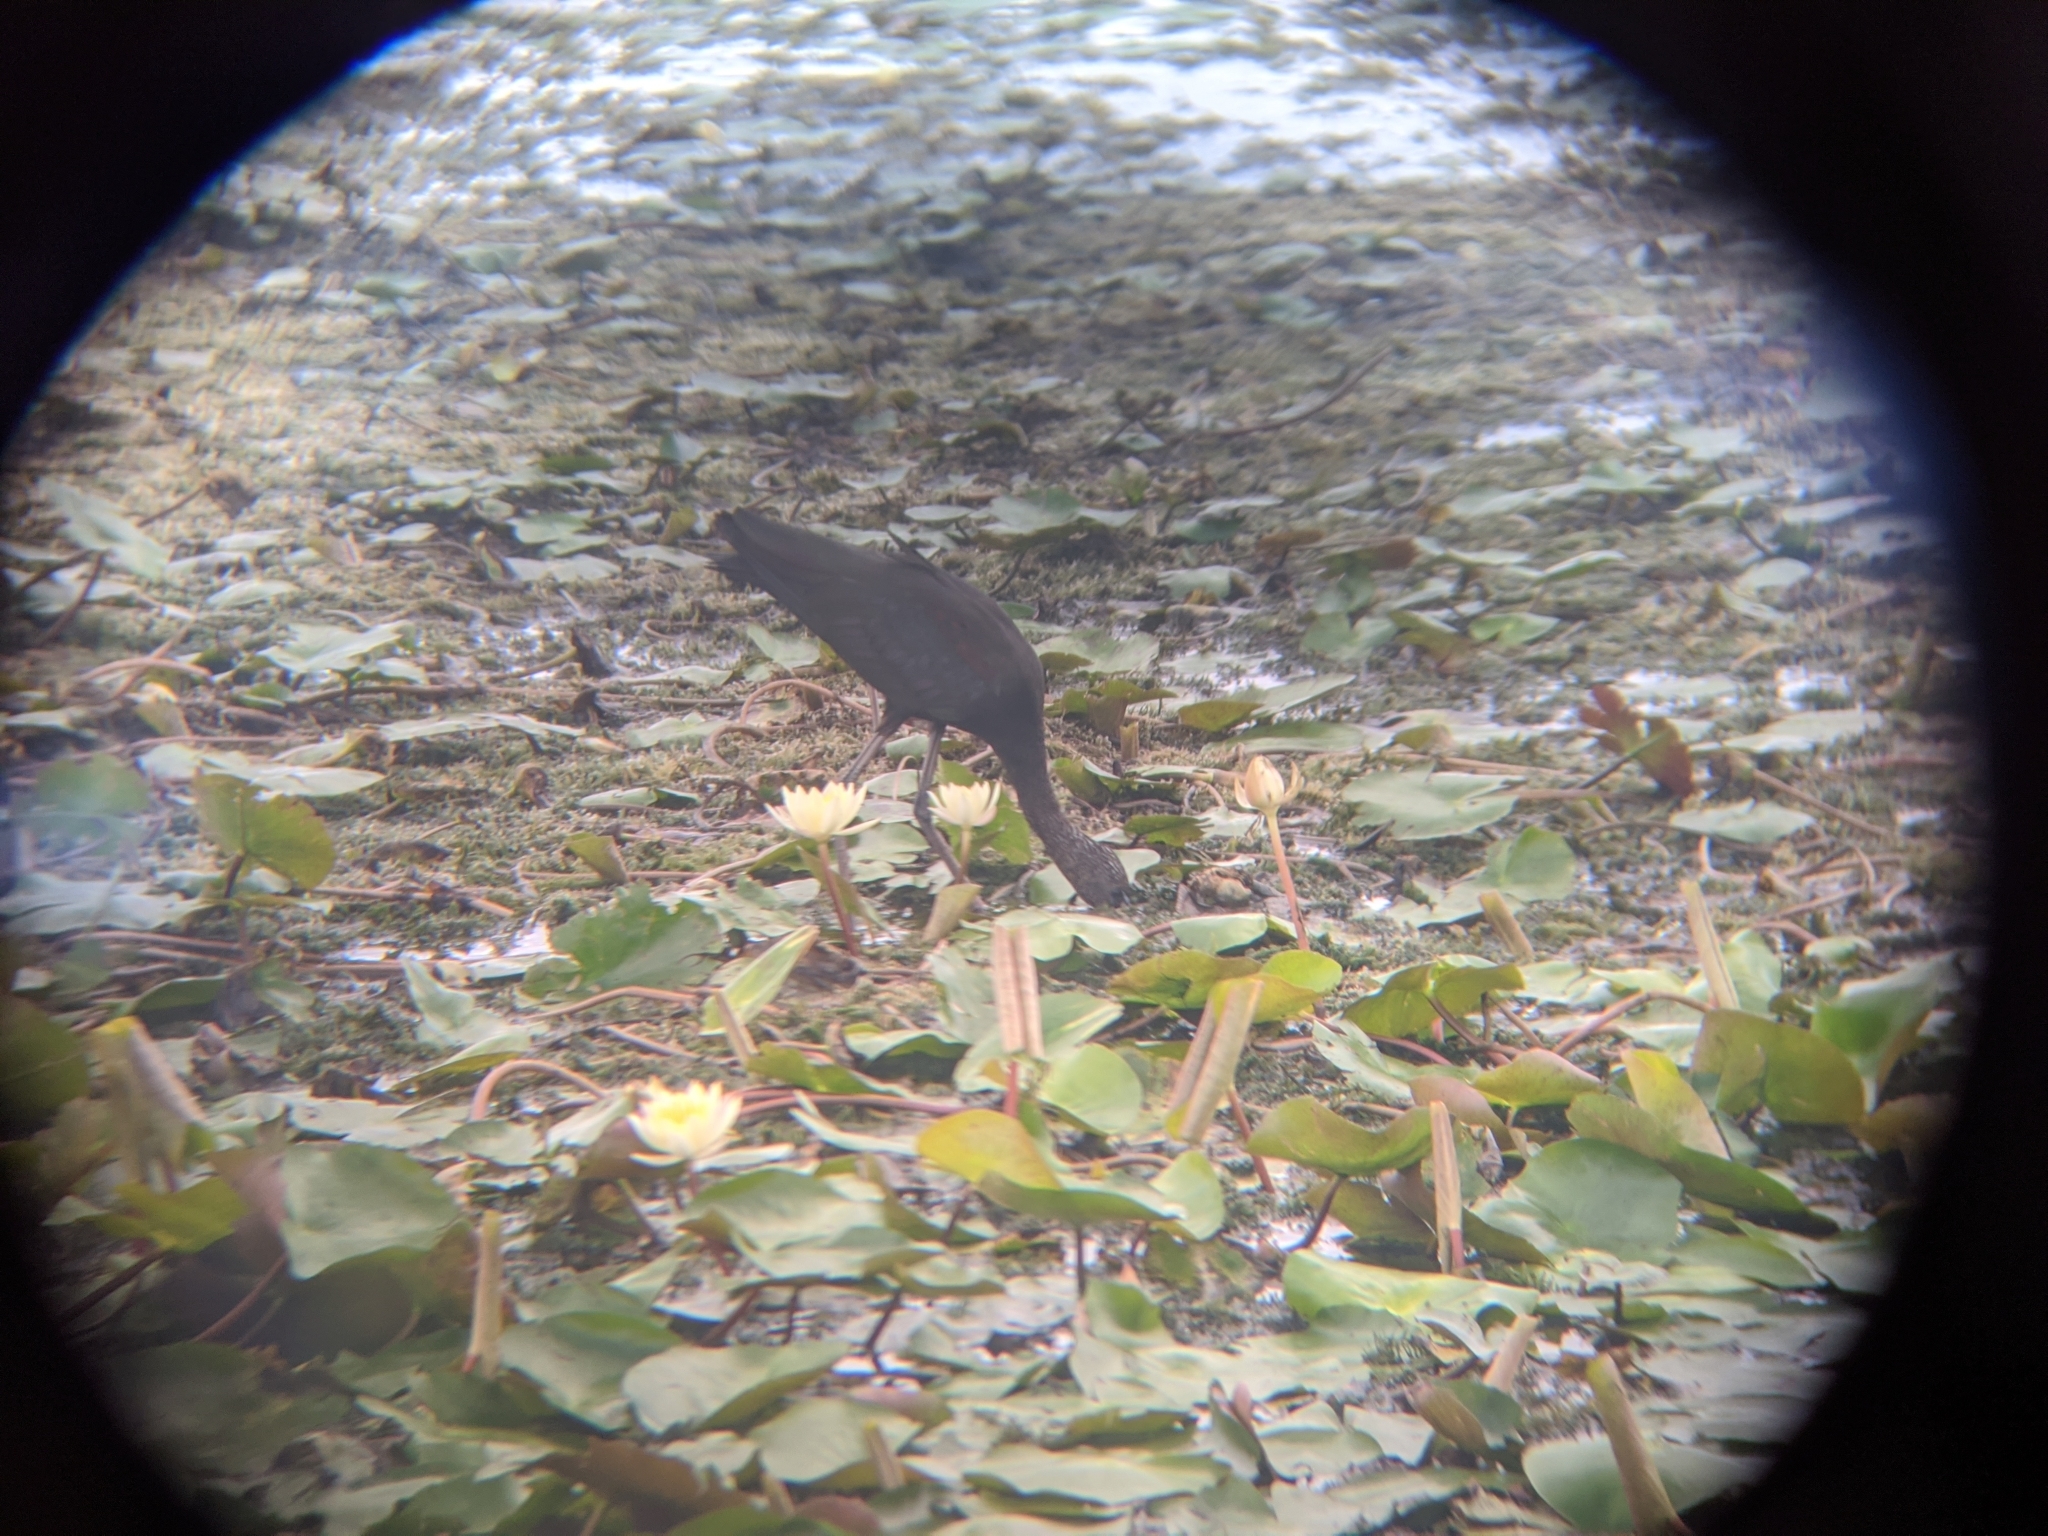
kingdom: Animalia
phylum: Chordata
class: Aves
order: Pelecaniformes
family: Threskiornithidae
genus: Plegadis
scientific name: Plegadis falcinellus
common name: Glossy ibis
